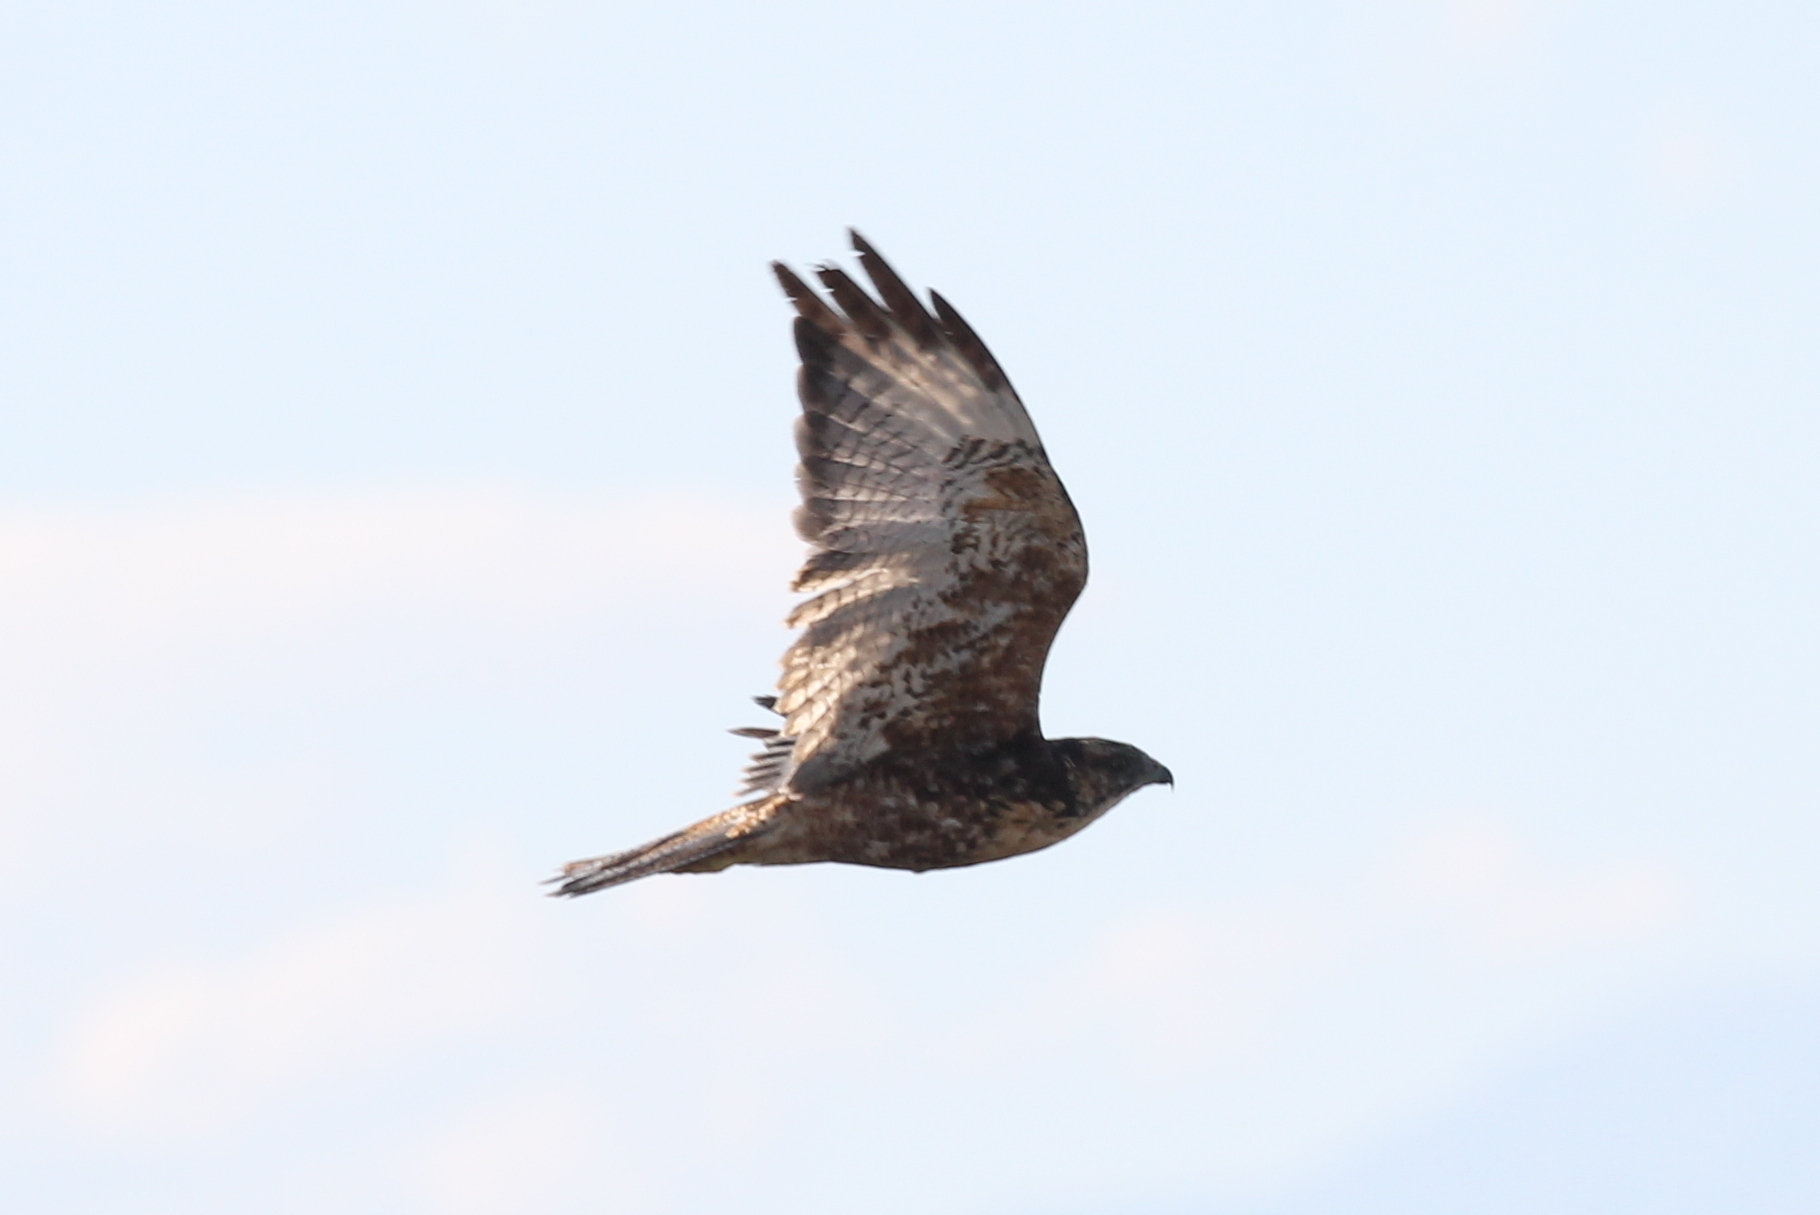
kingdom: Animalia
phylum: Chordata
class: Aves
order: Accipitriformes
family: Accipitridae
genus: Buteo
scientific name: Buteo polyosoma
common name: Variable hawk
